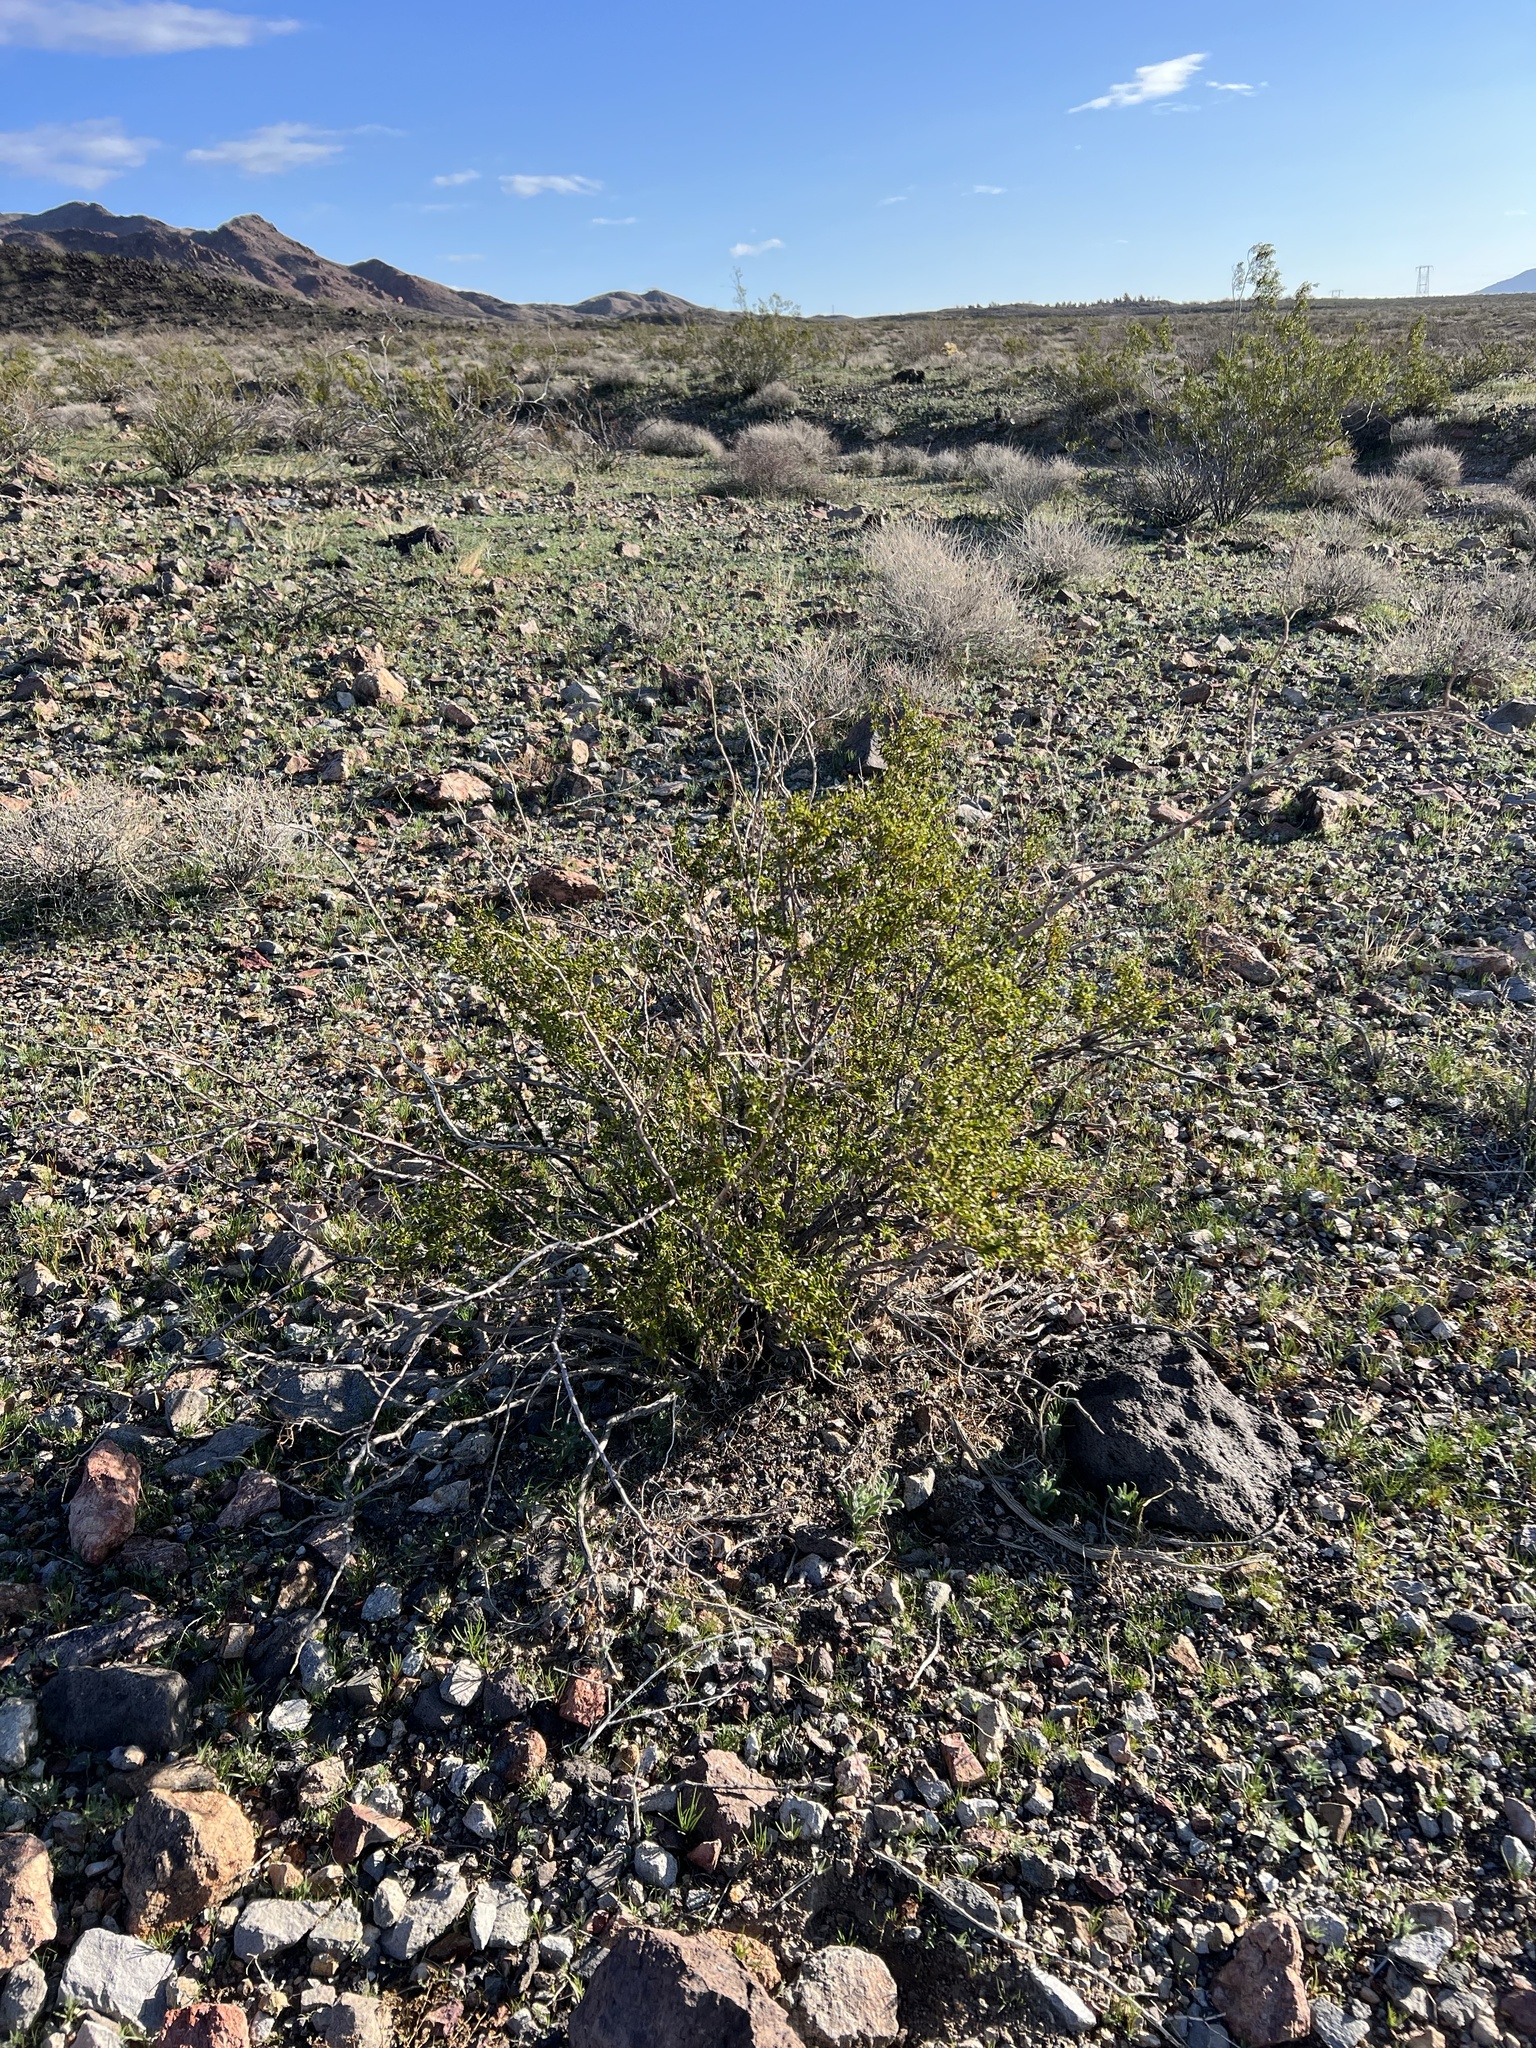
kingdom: Plantae
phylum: Tracheophyta
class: Magnoliopsida
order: Zygophyllales
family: Zygophyllaceae
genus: Larrea
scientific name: Larrea tridentata
